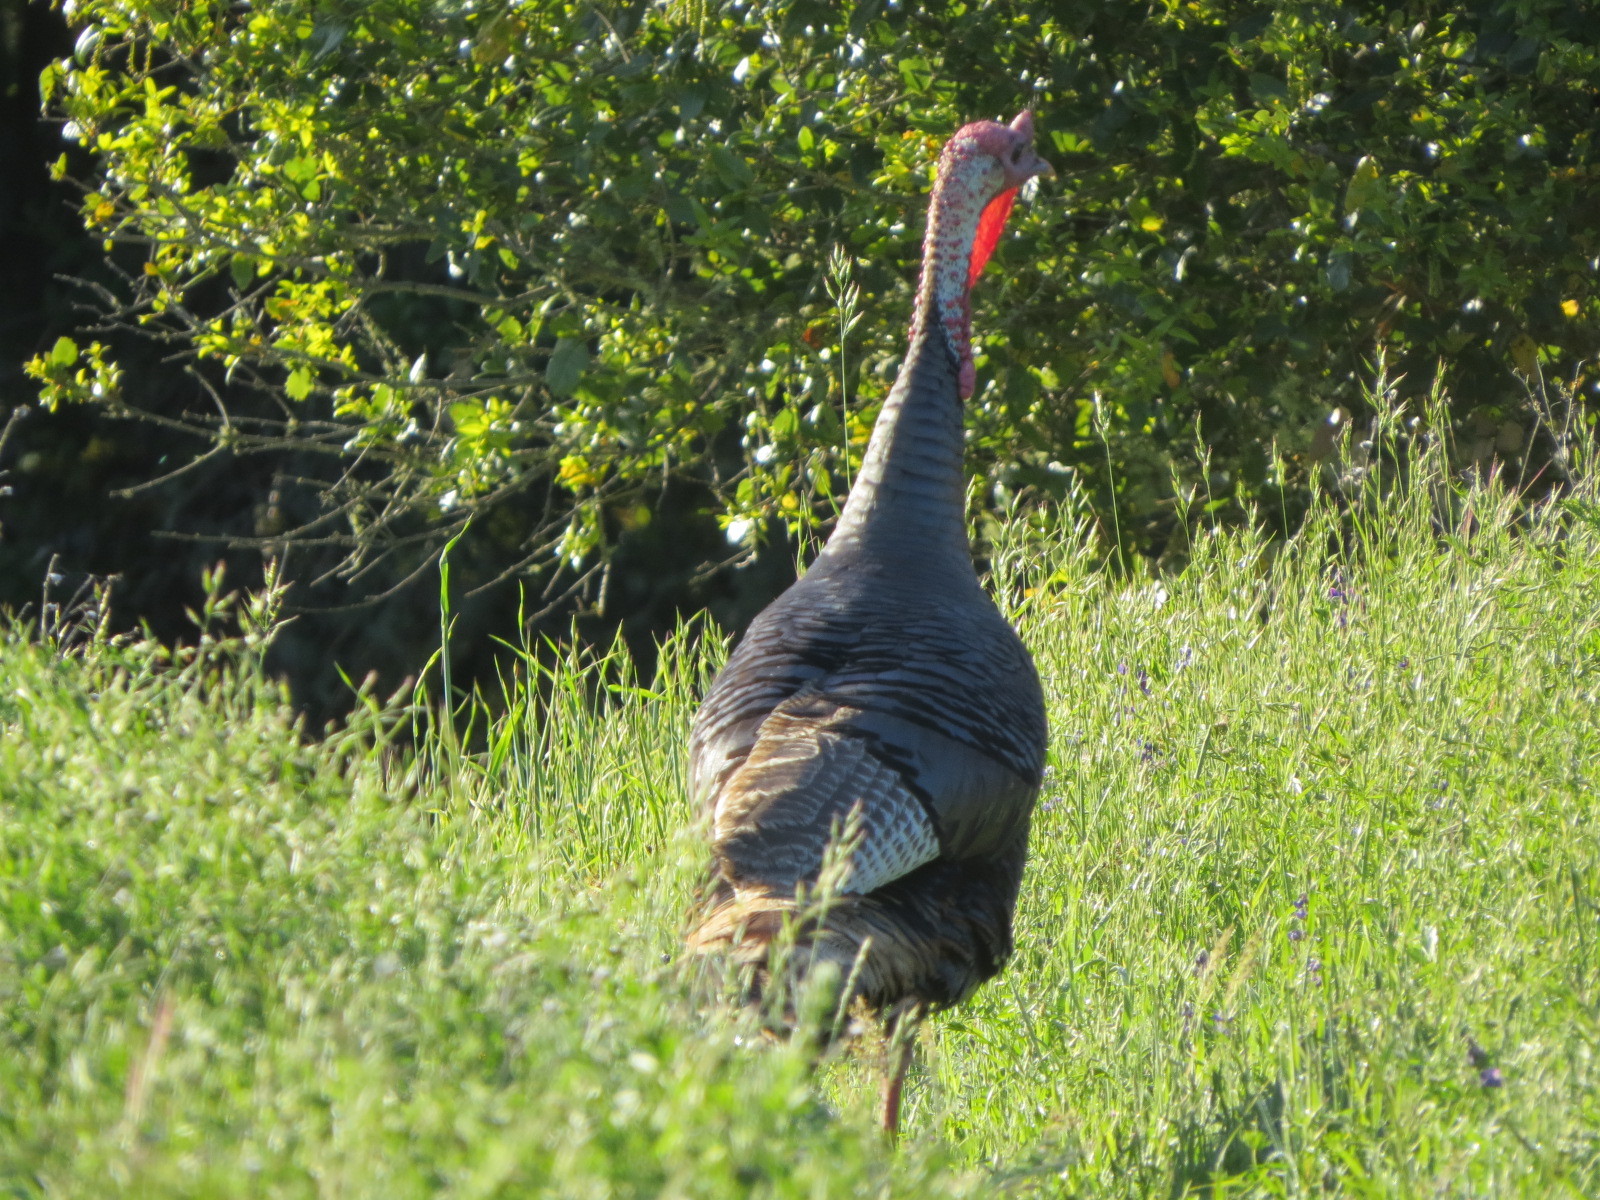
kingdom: Animalia
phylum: Chordata
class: Aves
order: Galliformes
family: Phasianidae
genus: Meleagris
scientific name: Meleagris gallopavo
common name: Wild turkey
